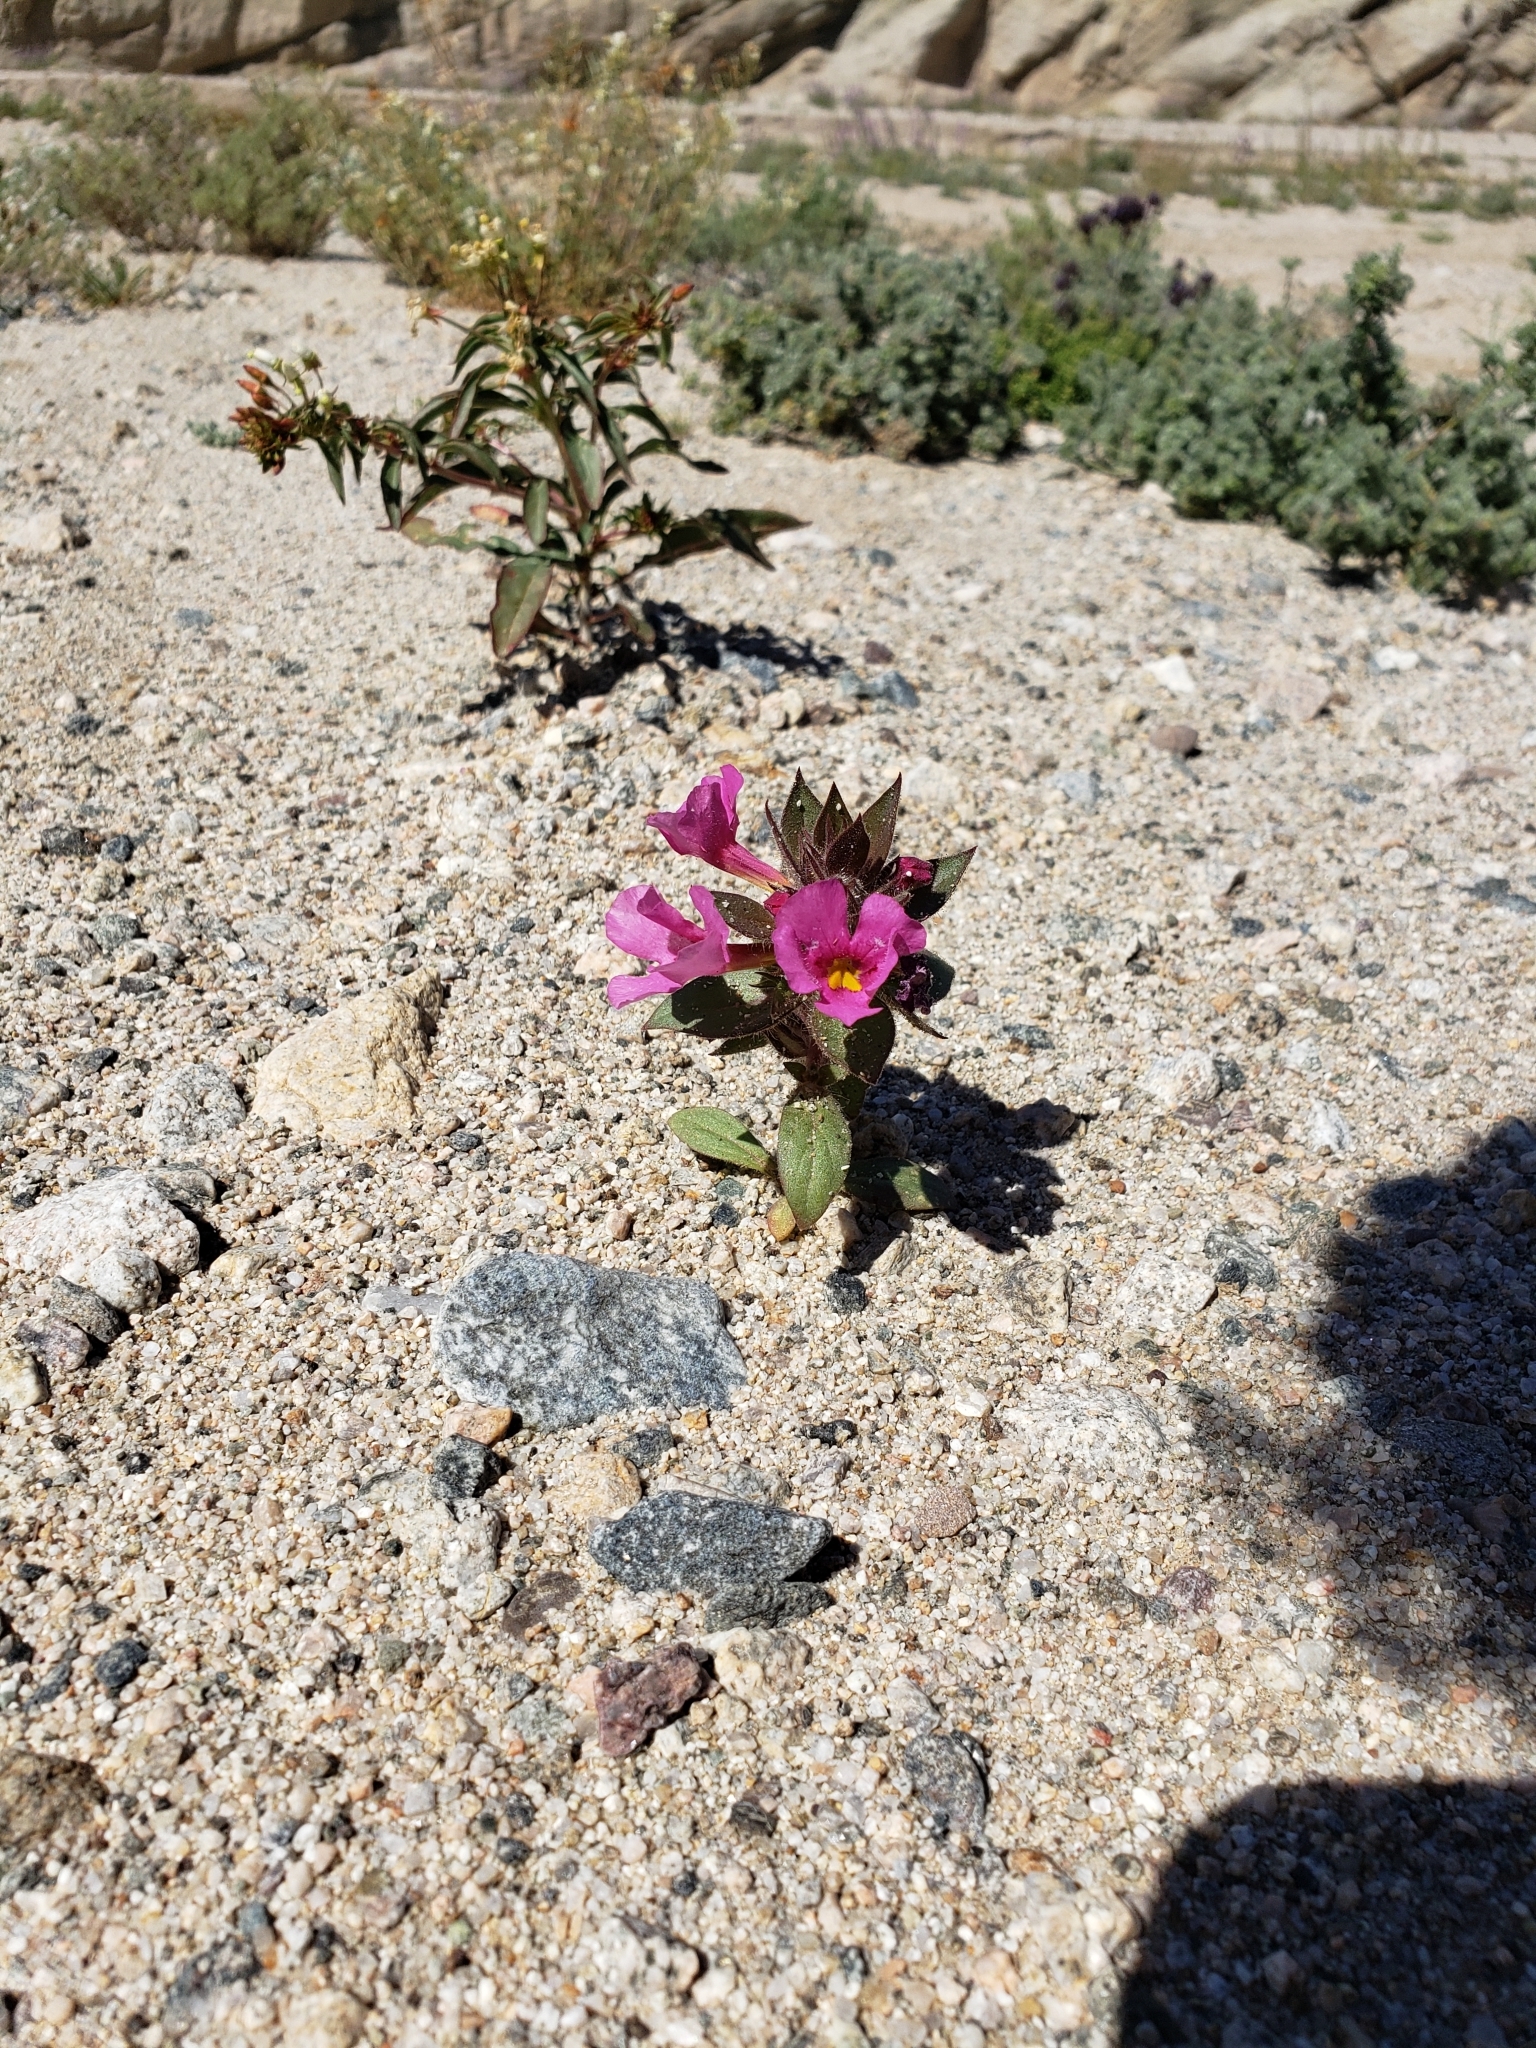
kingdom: Plantae
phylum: Tracheophyta
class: Magnoliopsida
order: Lamiales
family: Phrymaceae
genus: Diplacus
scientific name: Diplacus bigelovii
